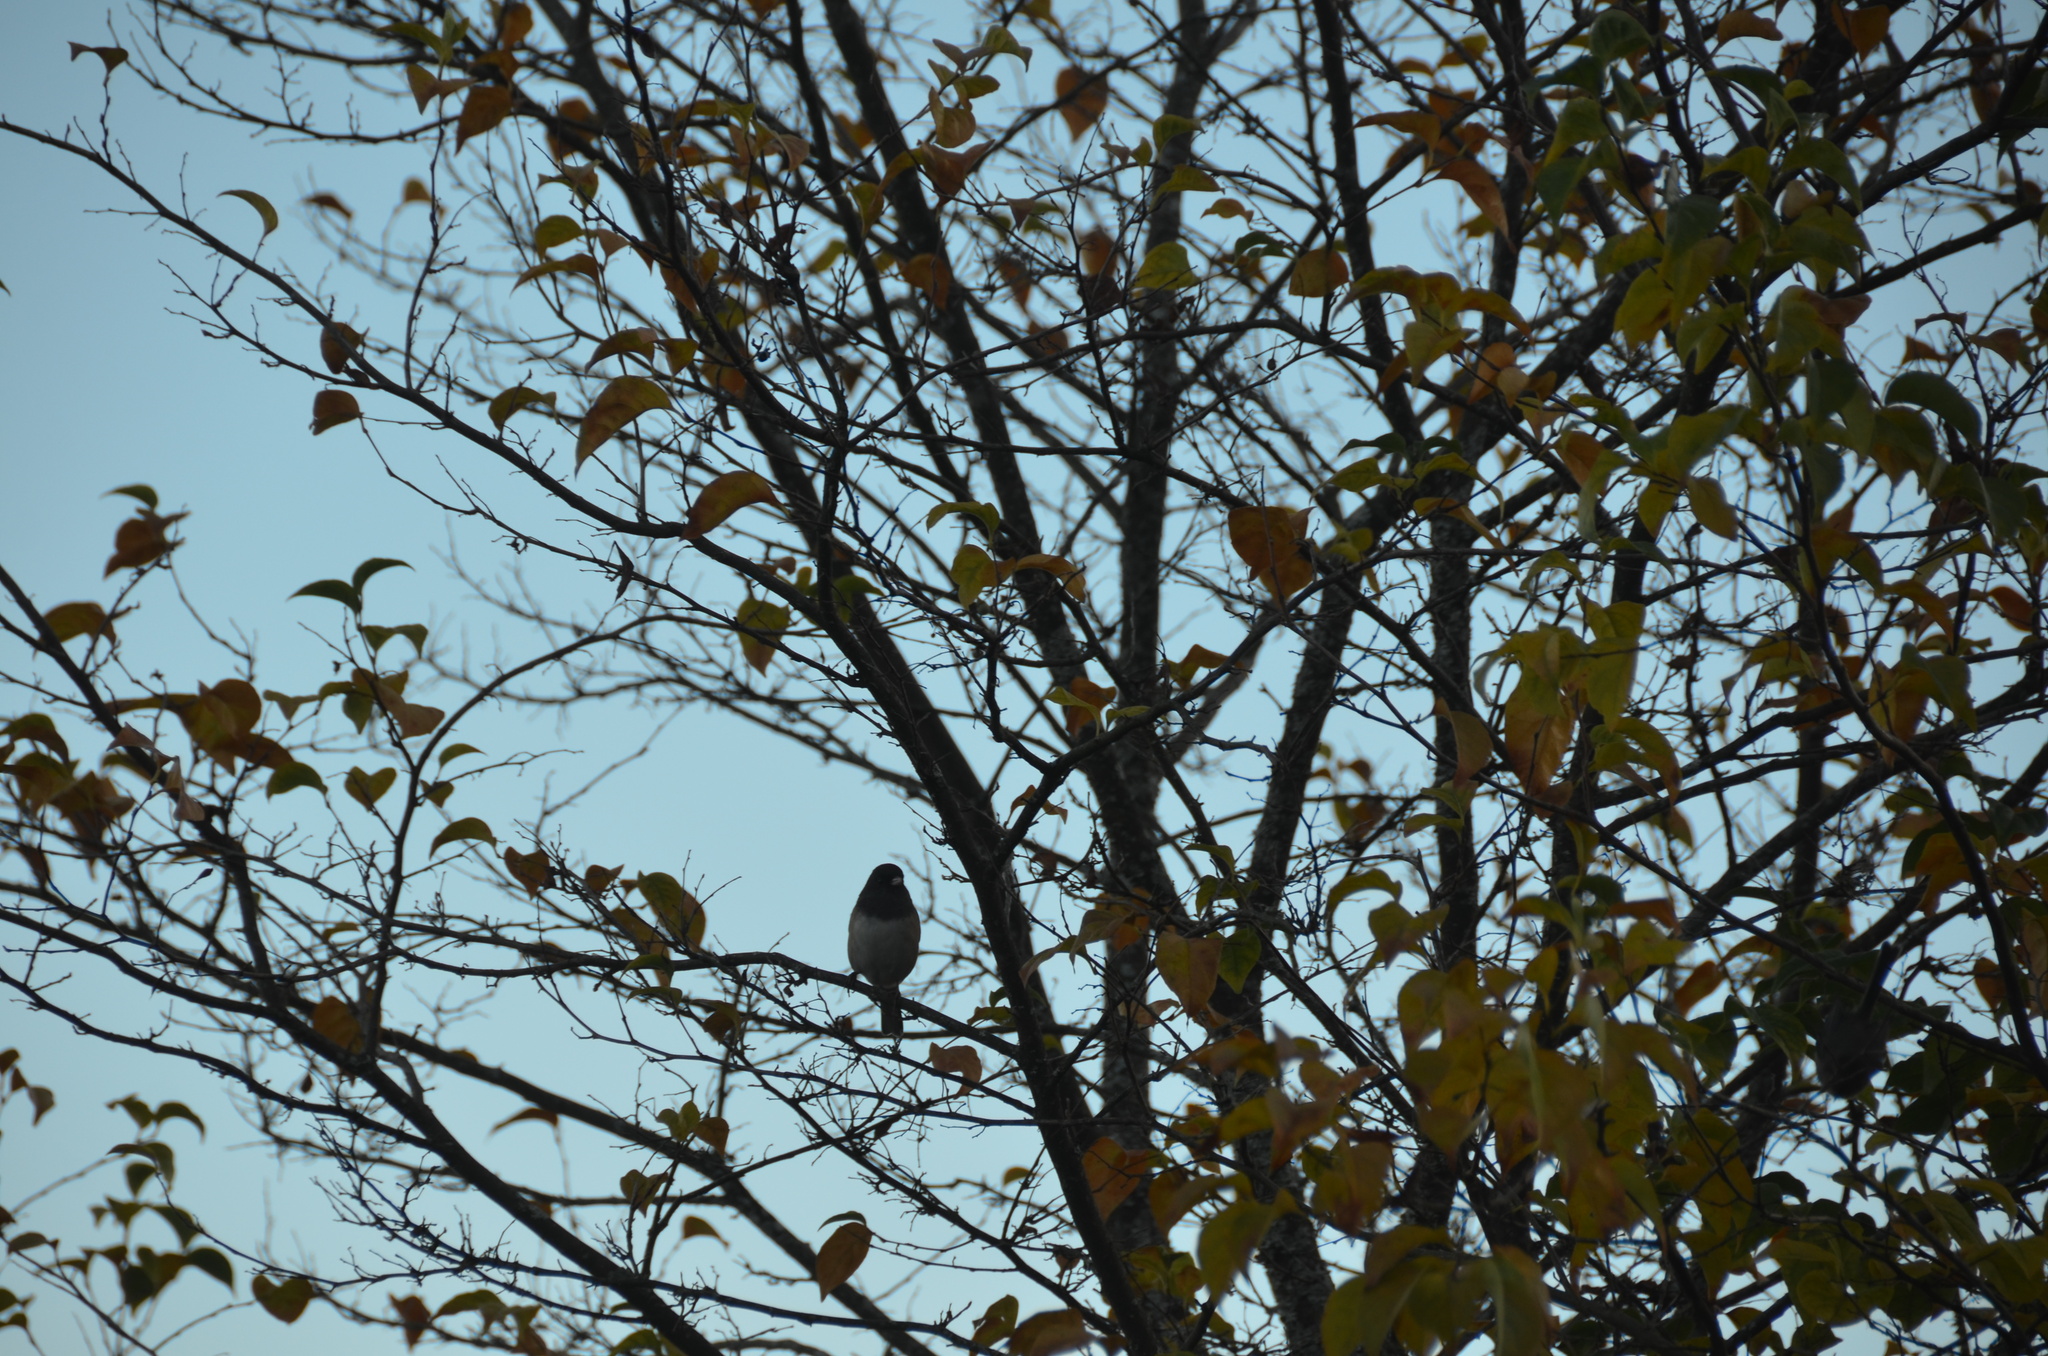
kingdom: Animalia
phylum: Chordata
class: Aves
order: Passeriformes
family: Passerellidae
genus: Junco
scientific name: Junco hyemalis
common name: Dark-eyed junco
